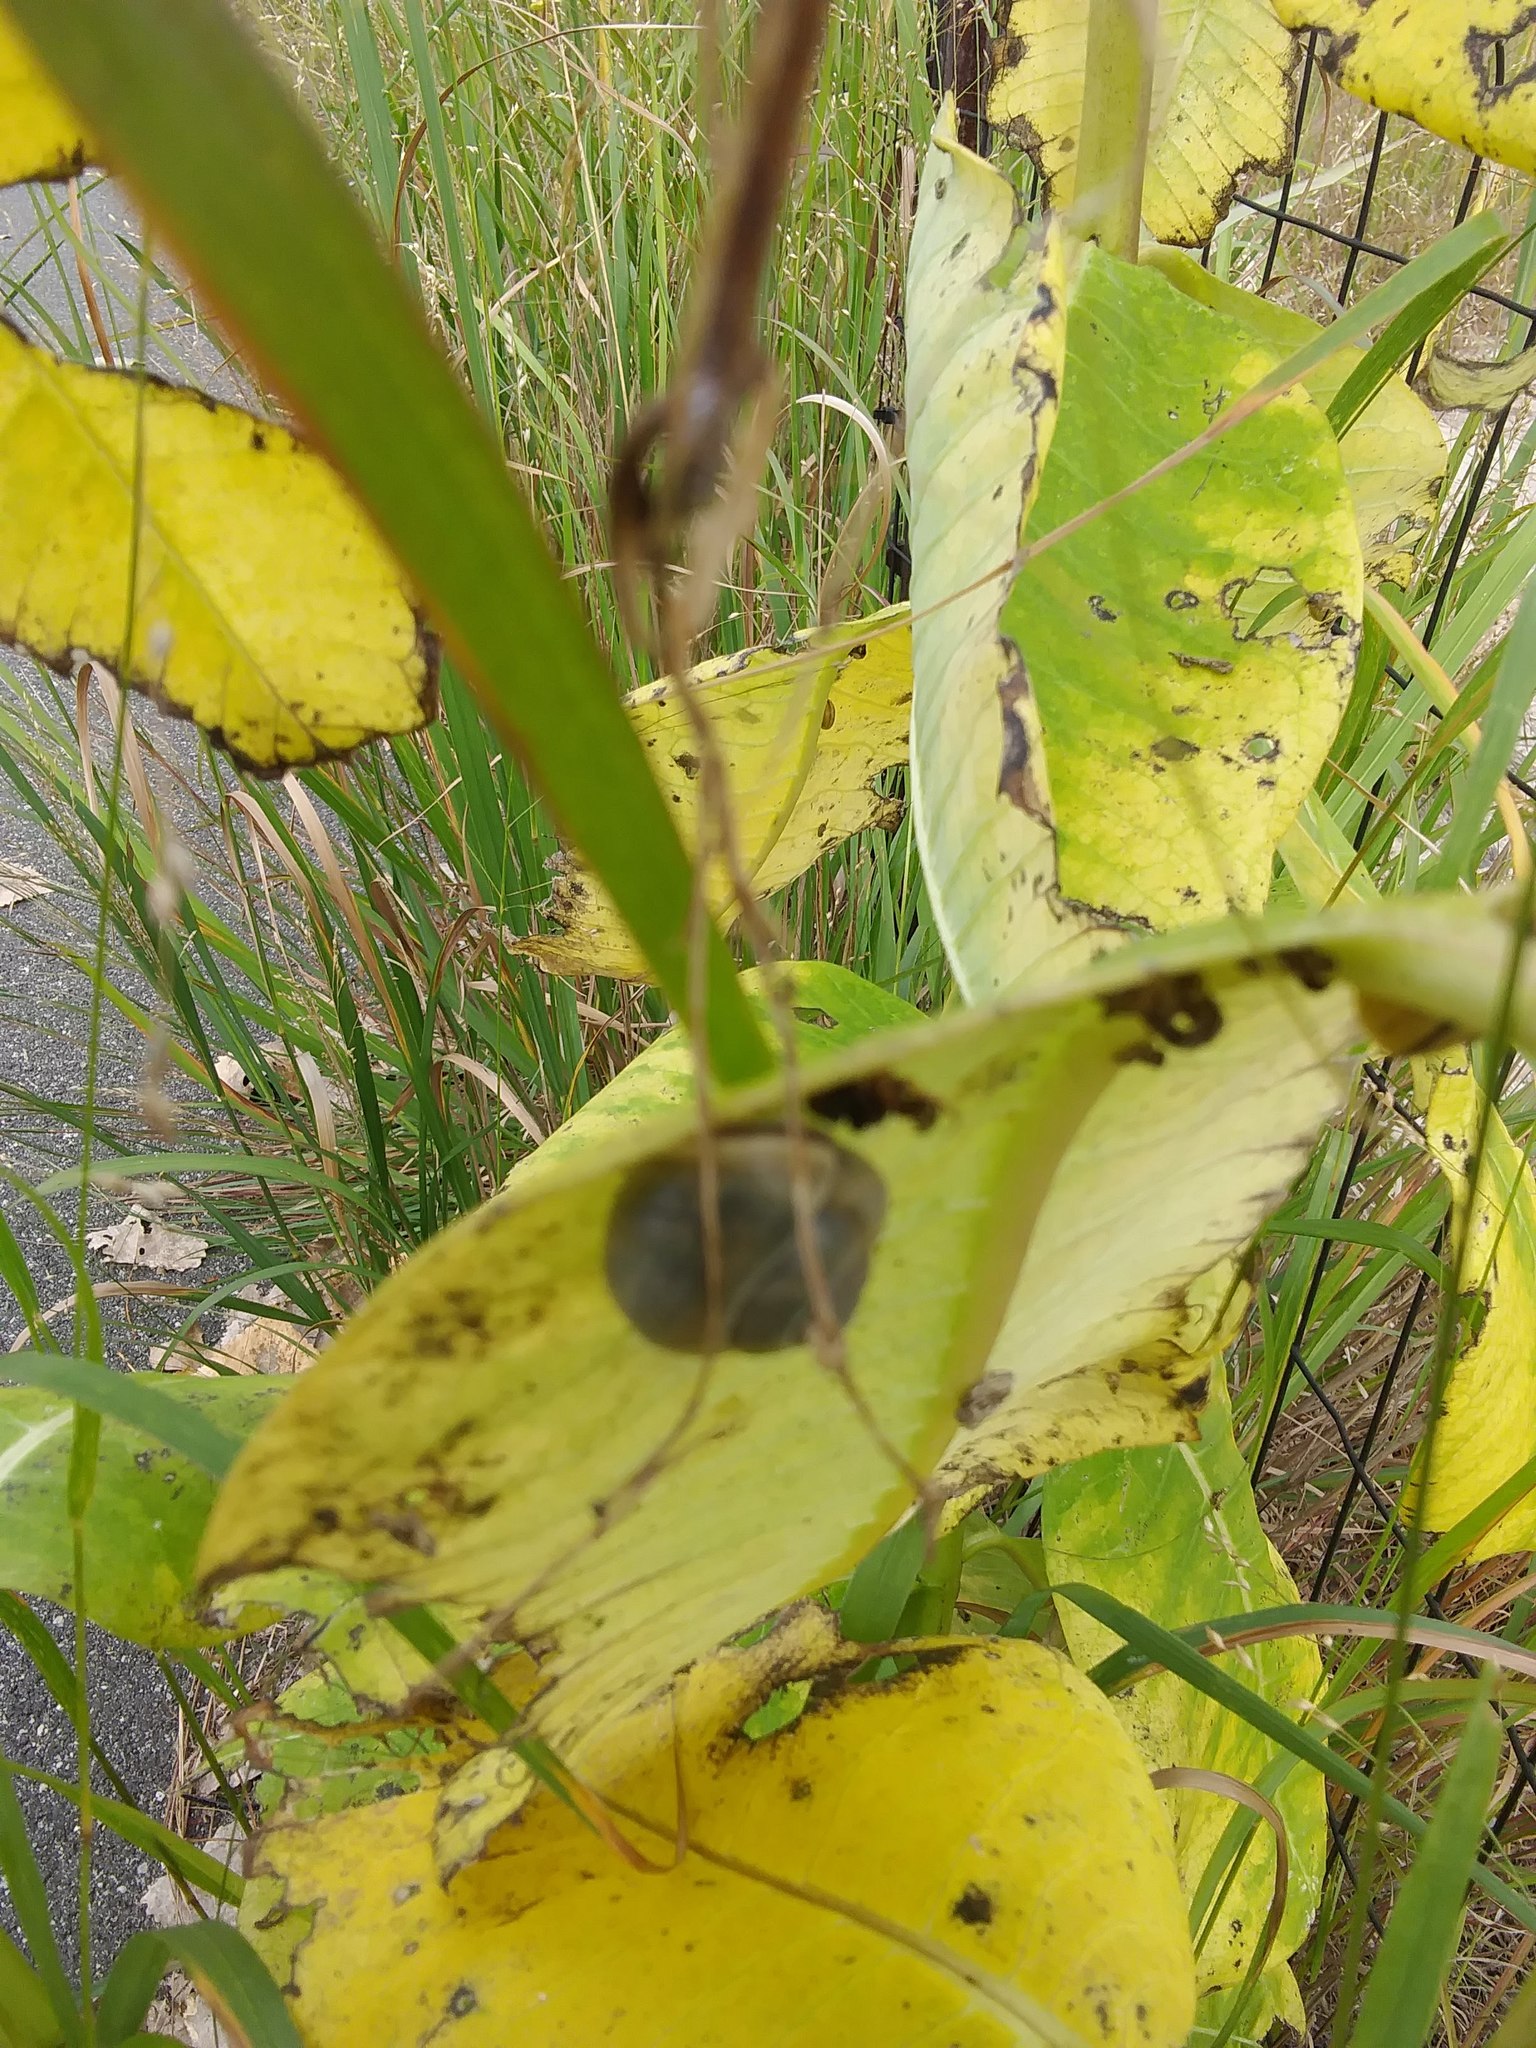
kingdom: Animalia
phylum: Mollusca
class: Gastropoda
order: Stylommatophora
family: Helicidae
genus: Cepaea
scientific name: Cepaea nemoralis
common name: Grovesnail
